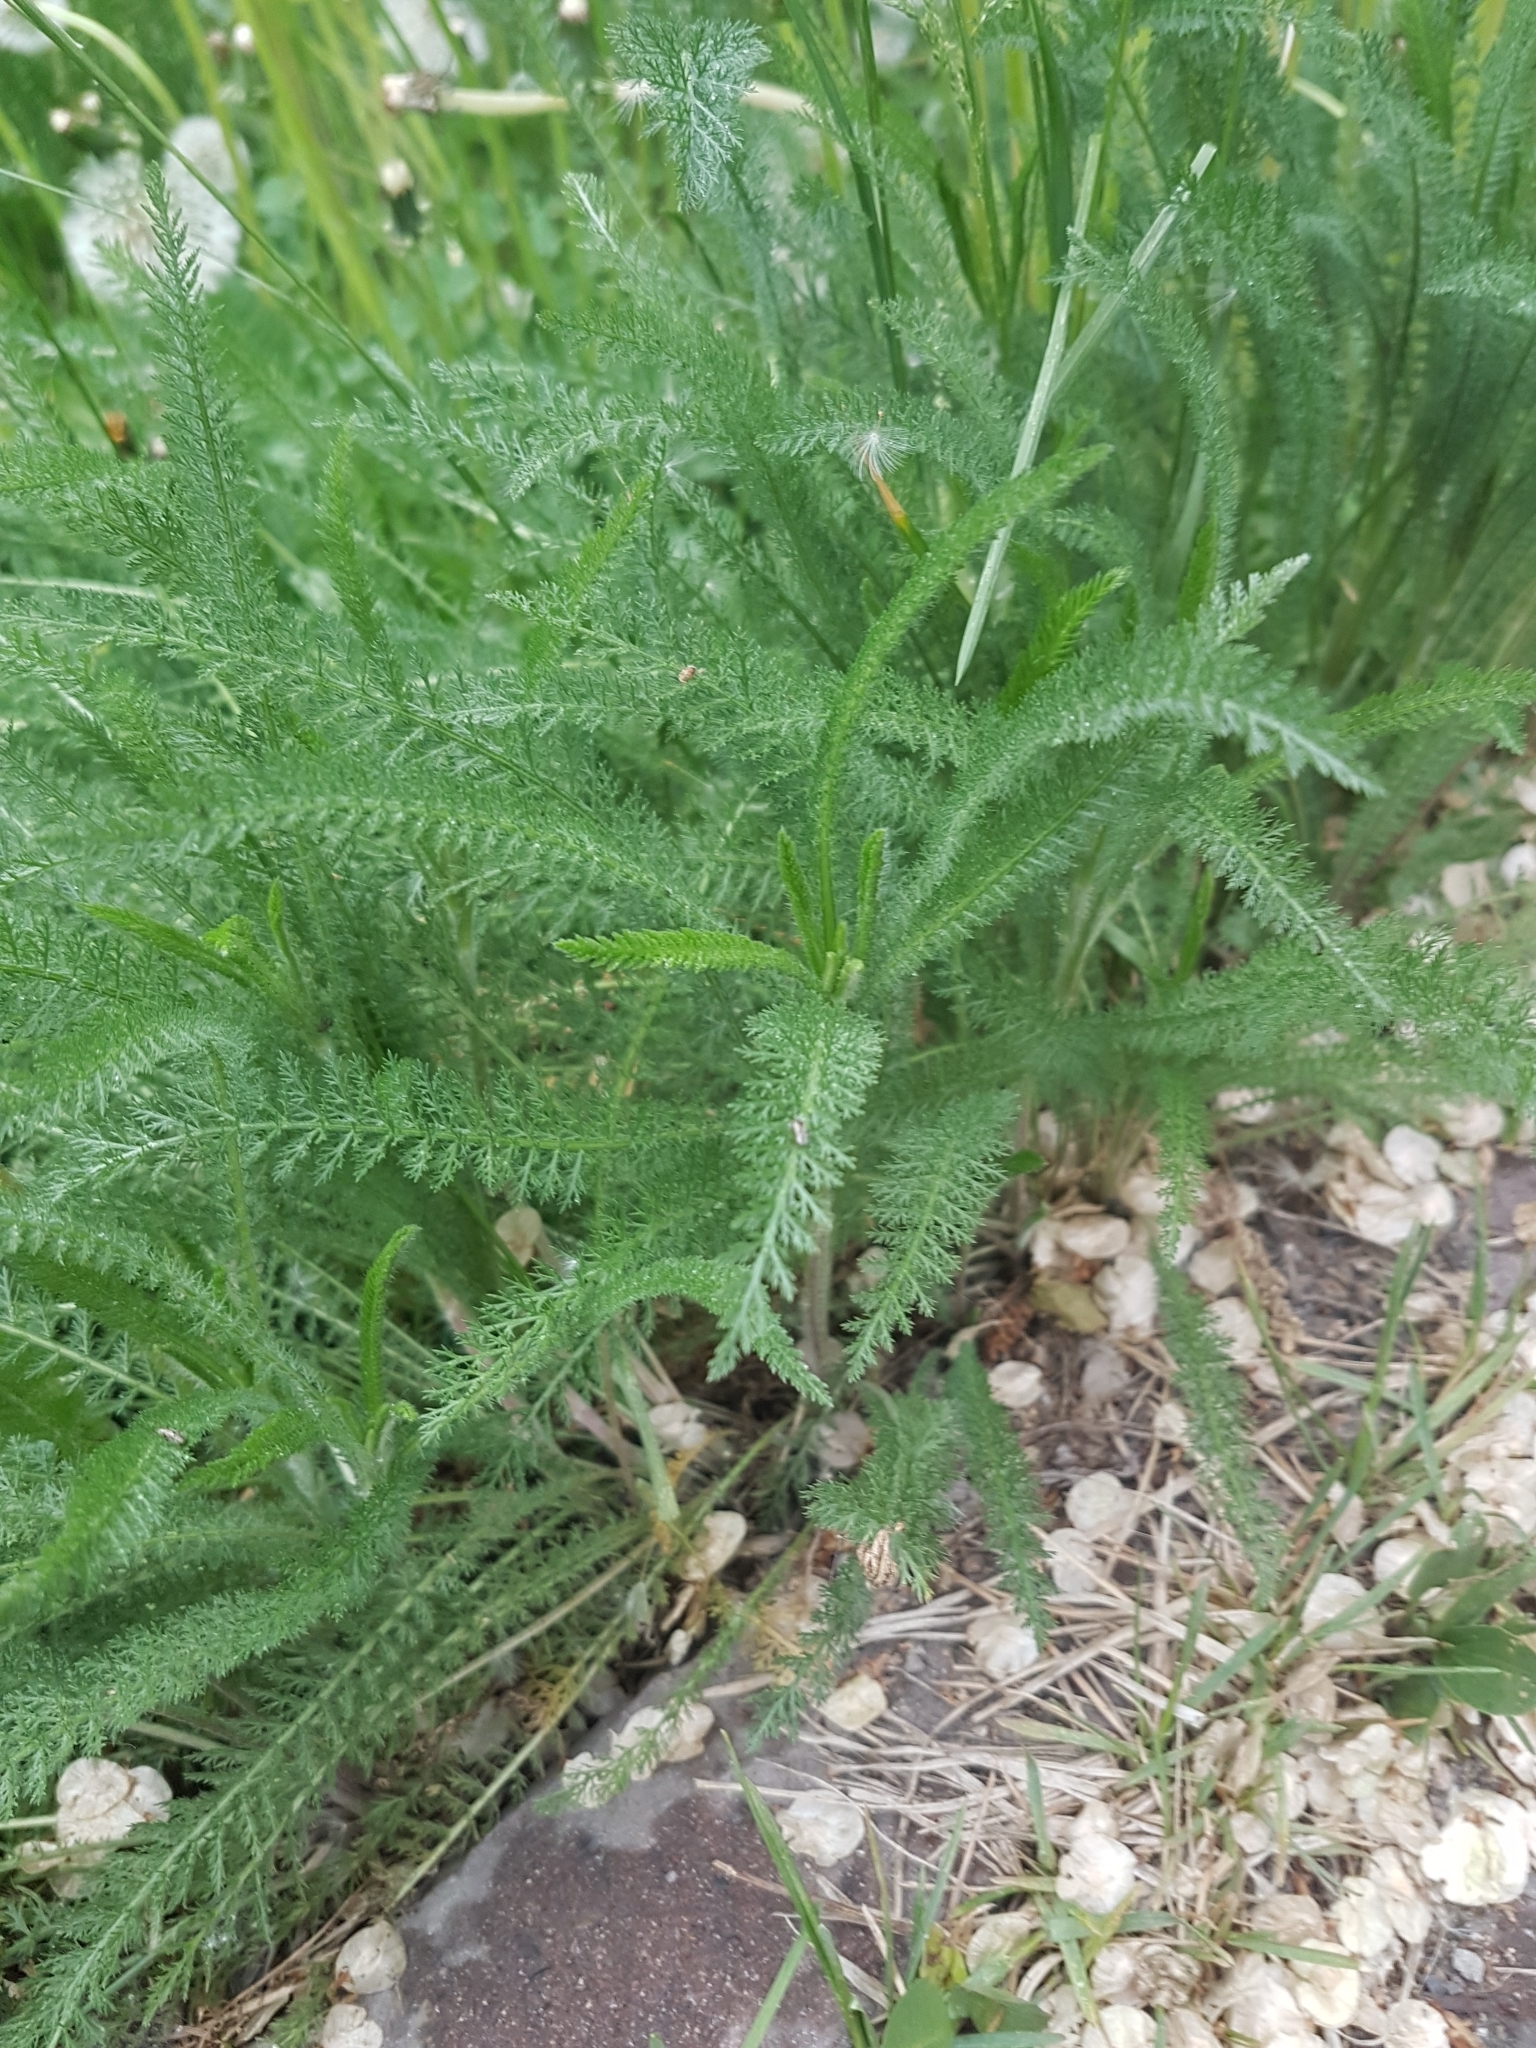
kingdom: Plantae
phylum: Tracheophyta
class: Magnoliopsida
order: Asterales
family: Asteraceae
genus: Achillea
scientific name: Achillea millefolium
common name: Yarrow
